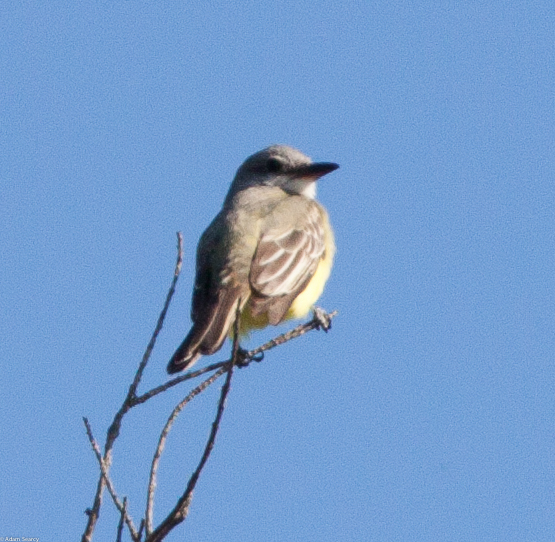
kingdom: Animalia
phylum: Chordata
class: Aves
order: Passeriformes
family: Tyrannidae
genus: Tyrannus
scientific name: Tyrannus melancholicus
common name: Tropical kingbird
